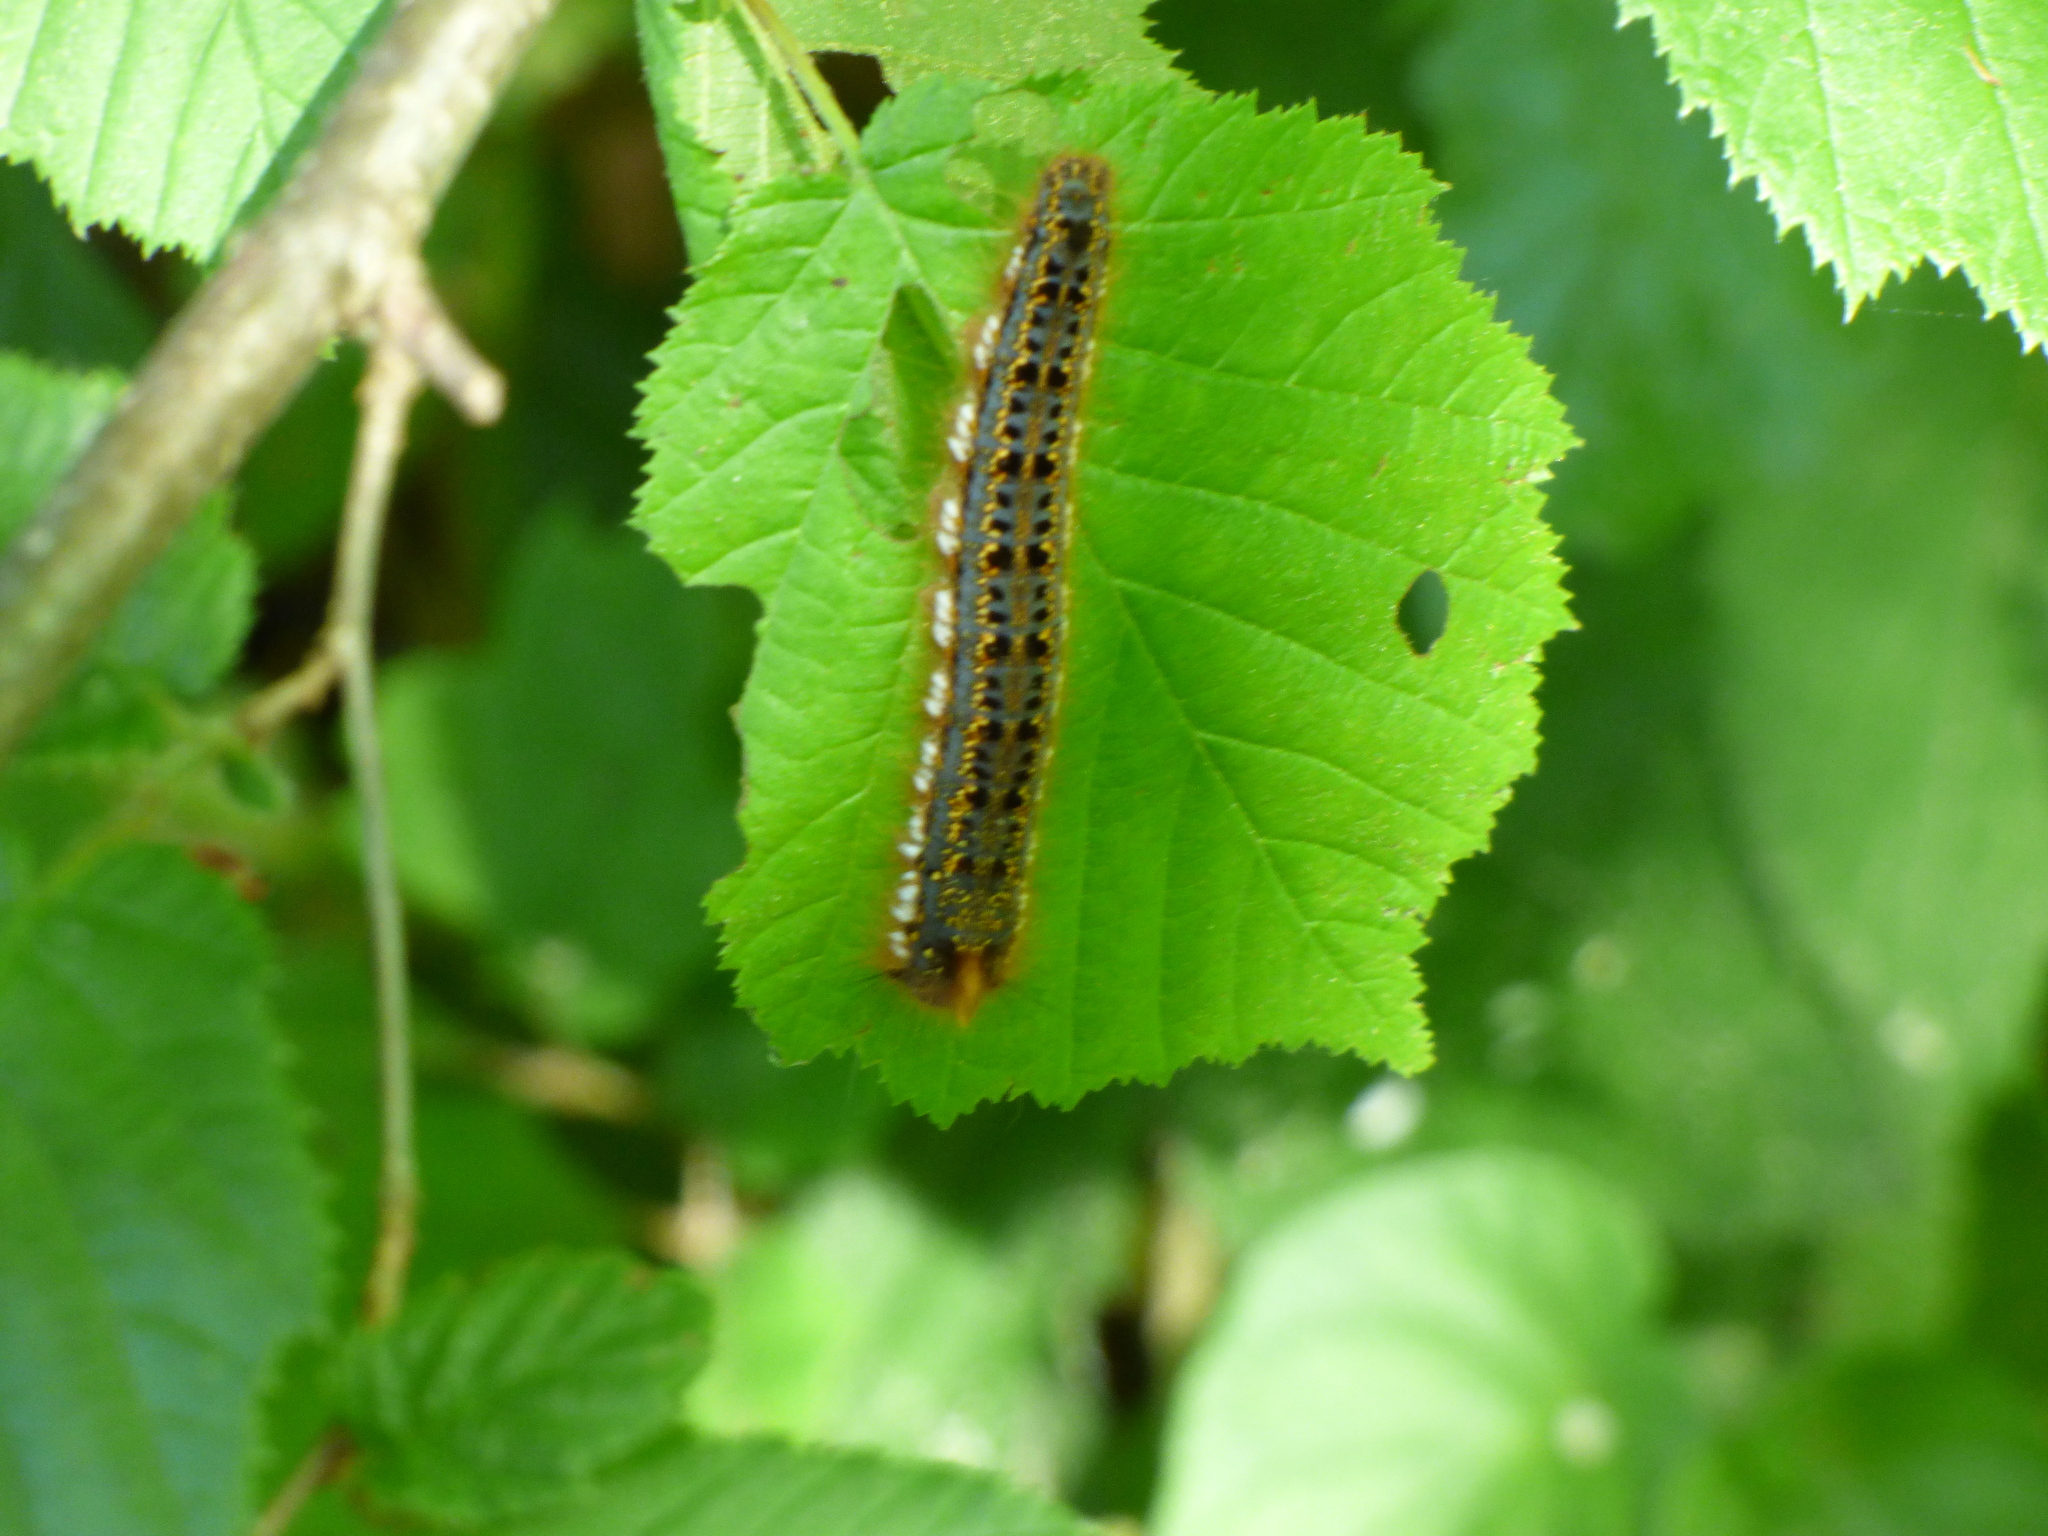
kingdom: Animalia
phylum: Arthropoda
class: Insecta
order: Lepidoptera
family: Lasiocampidae
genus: Euthrix
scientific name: Euthrix potatoria
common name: Drinker
